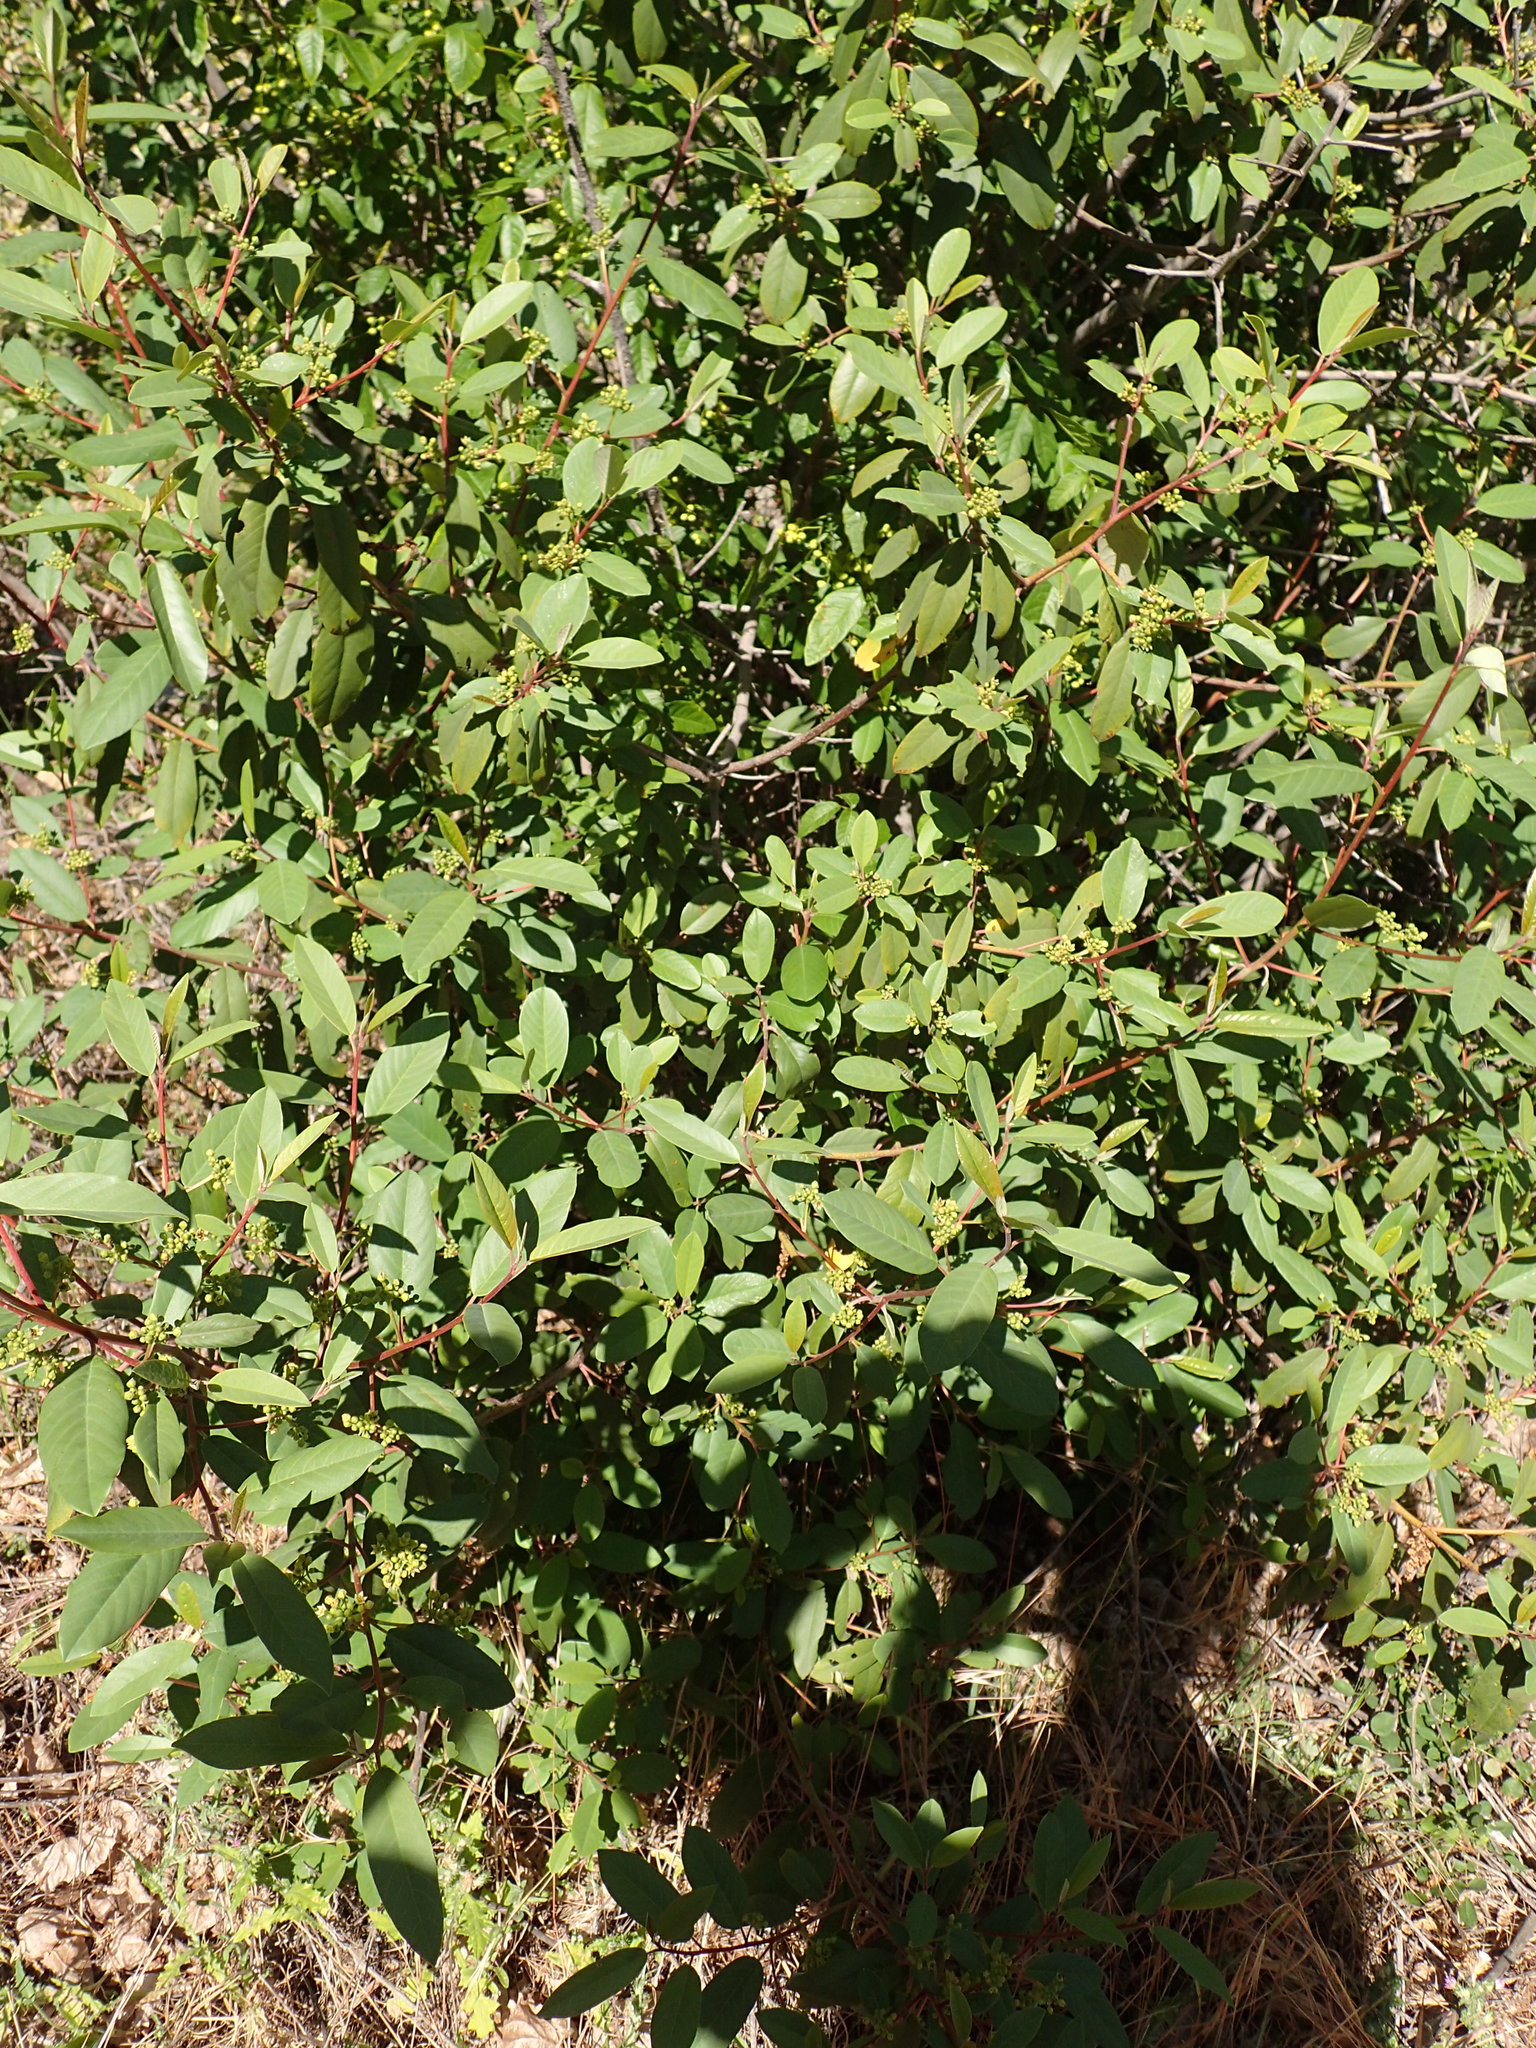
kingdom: Plantae
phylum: Tracheophyta
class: Magnoliopsida
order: Rosales
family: Rhamnaceae
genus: Frangula
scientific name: Frangula californica
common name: California buckthorn
